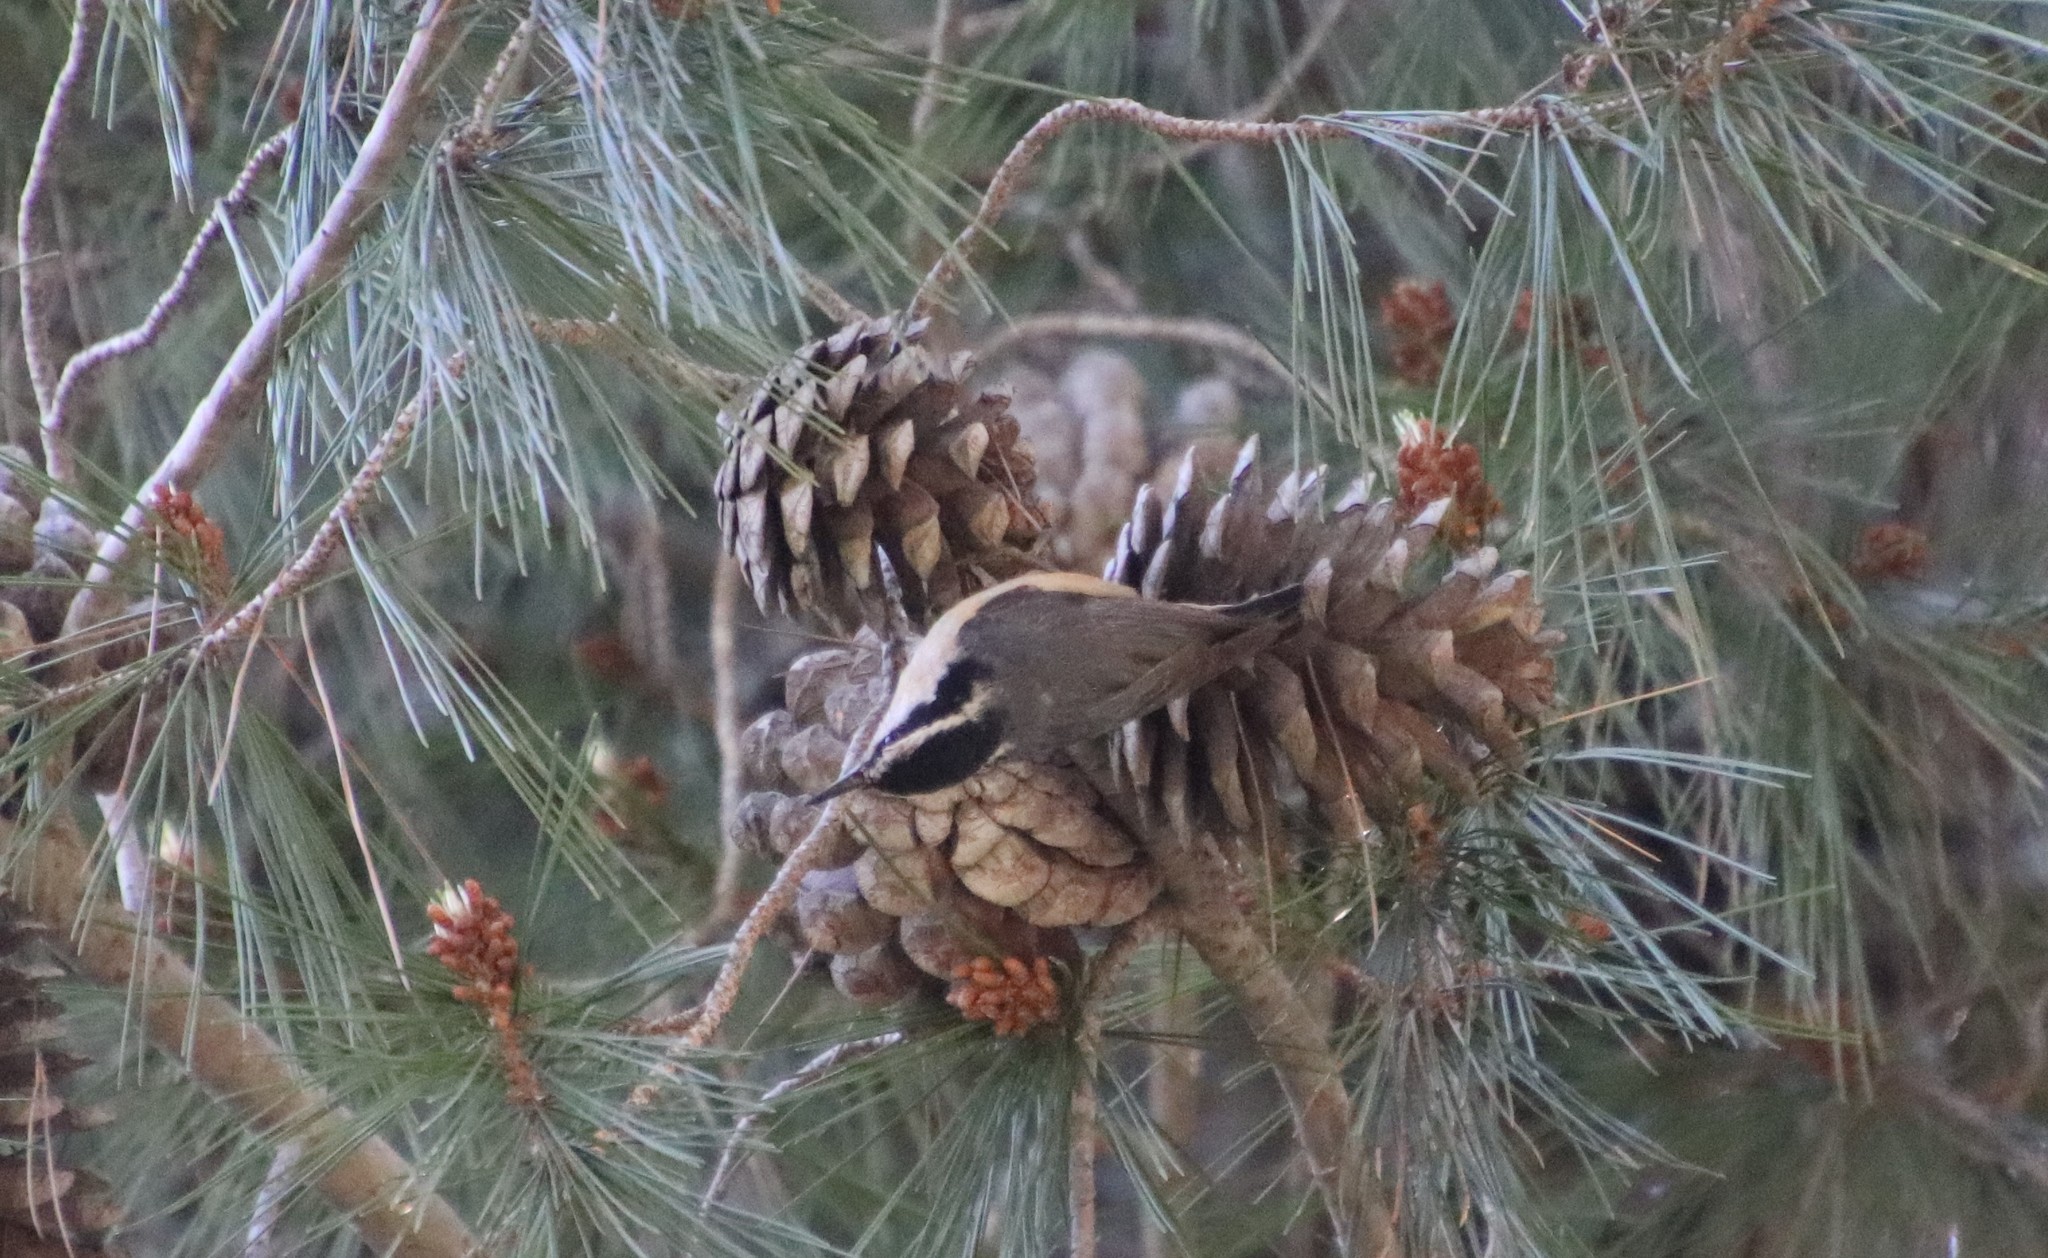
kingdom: Animalia
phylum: Chordata
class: Aves
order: Passeriformes
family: Sittidae
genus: Sitta
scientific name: Sitta canadensis
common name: Red-breasted nuthatch
